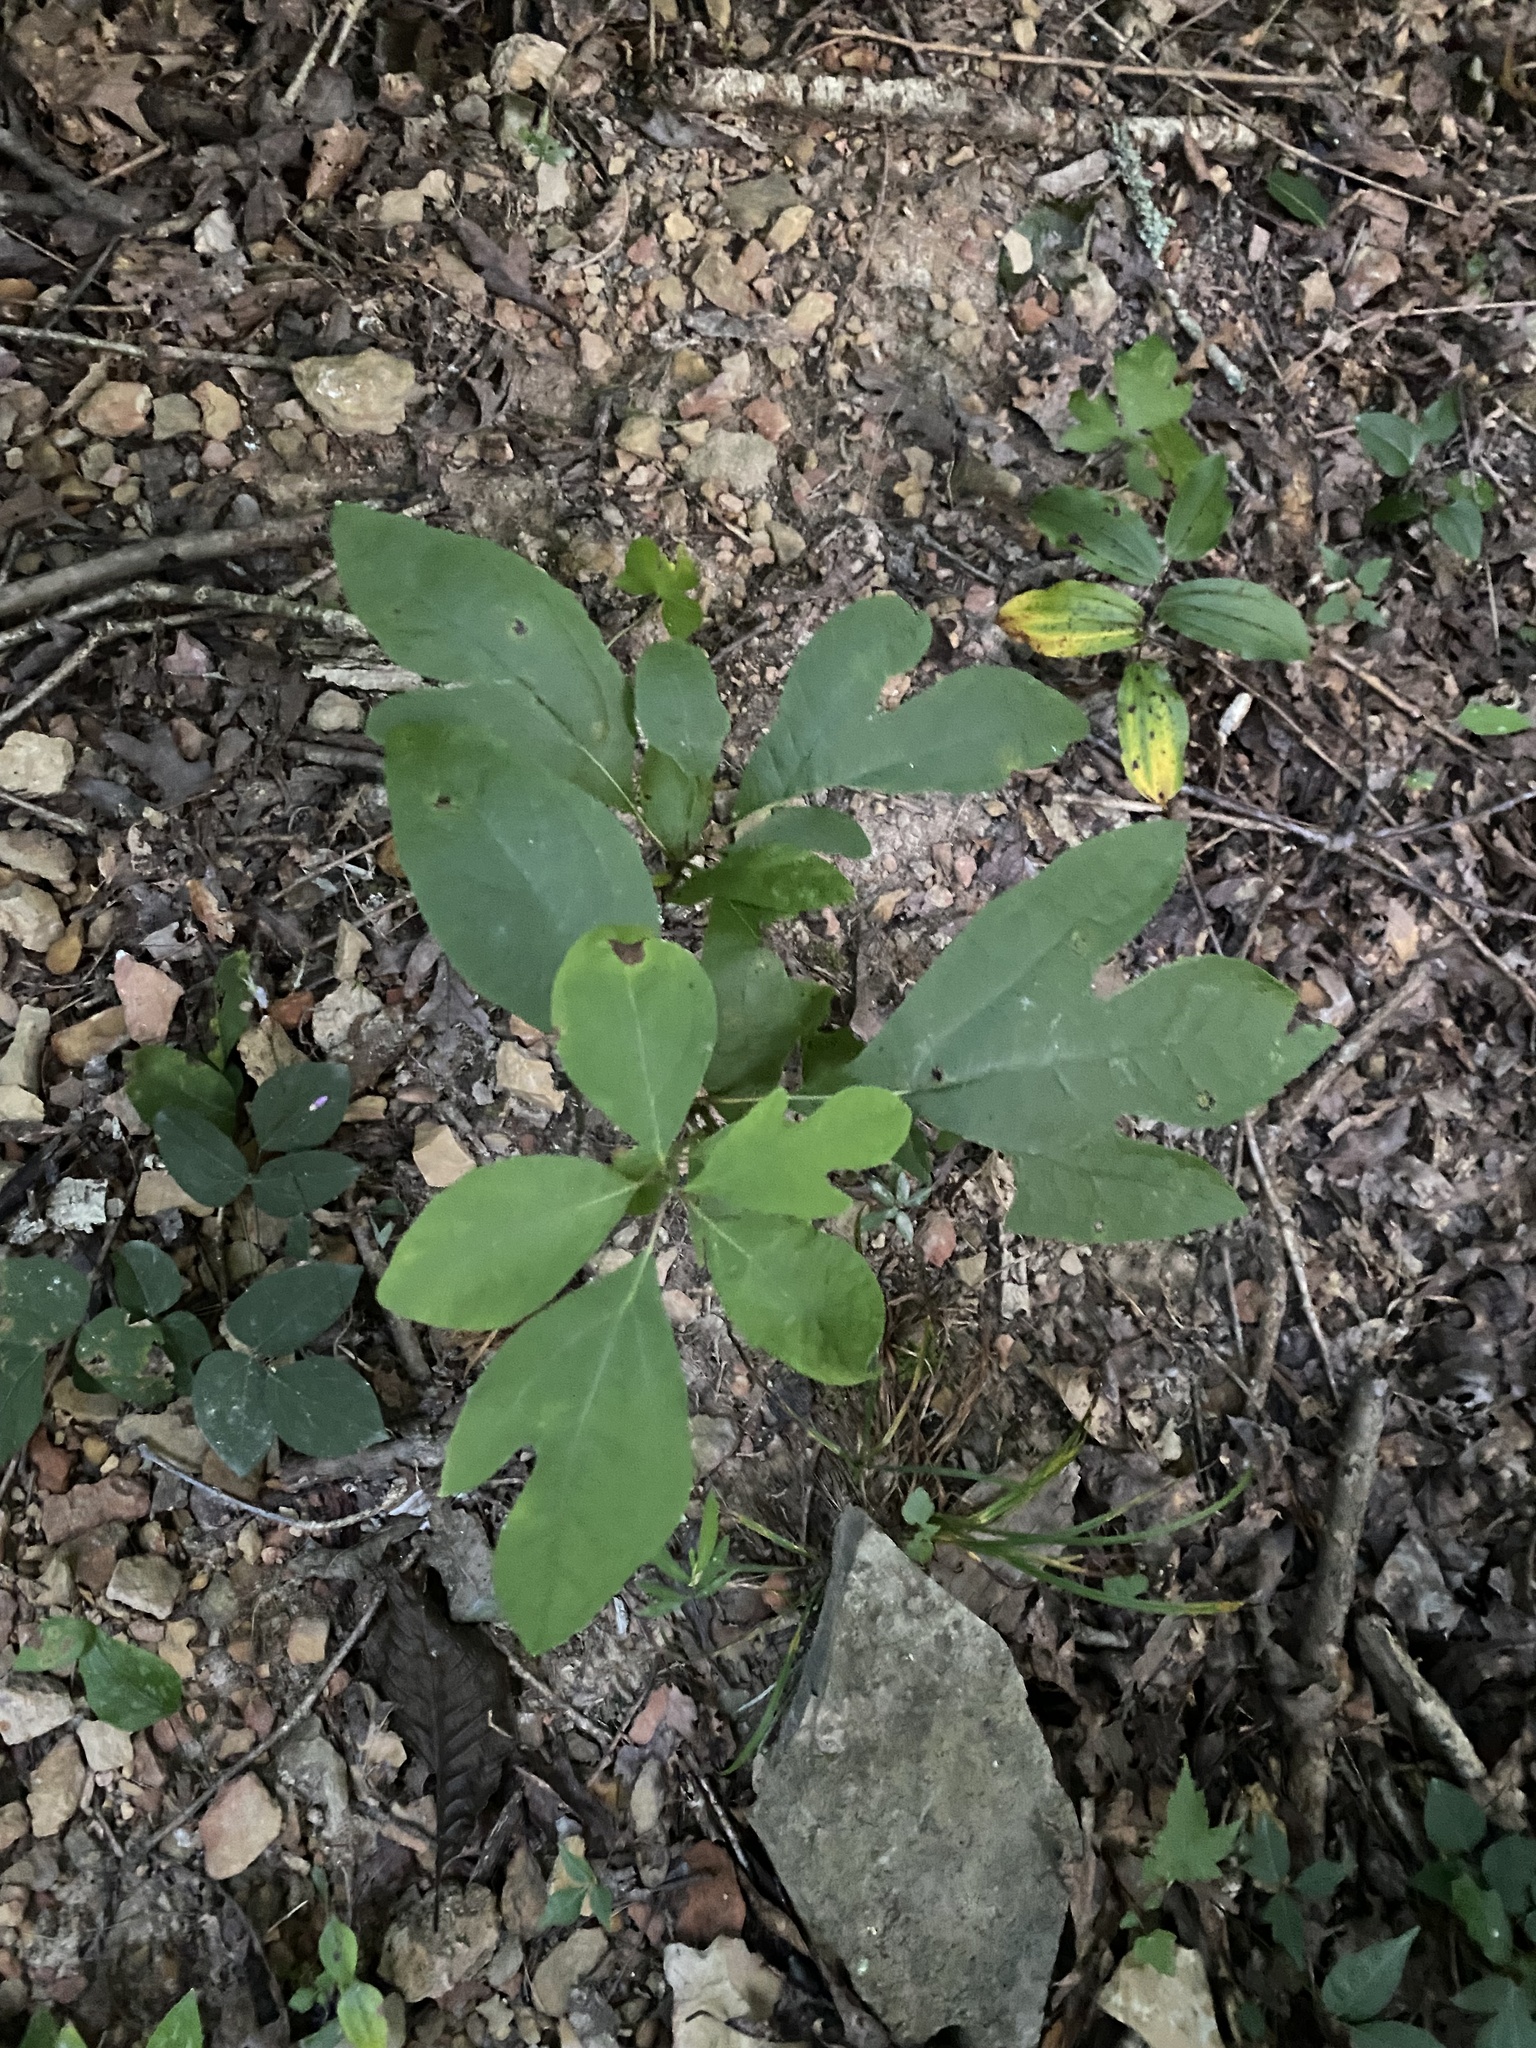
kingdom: Plantae
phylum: Tracheophyta
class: Magnoliopsida
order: Laurales
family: Lauraceae
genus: Sassafras
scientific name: Sassafras albidum
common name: Sassafras
